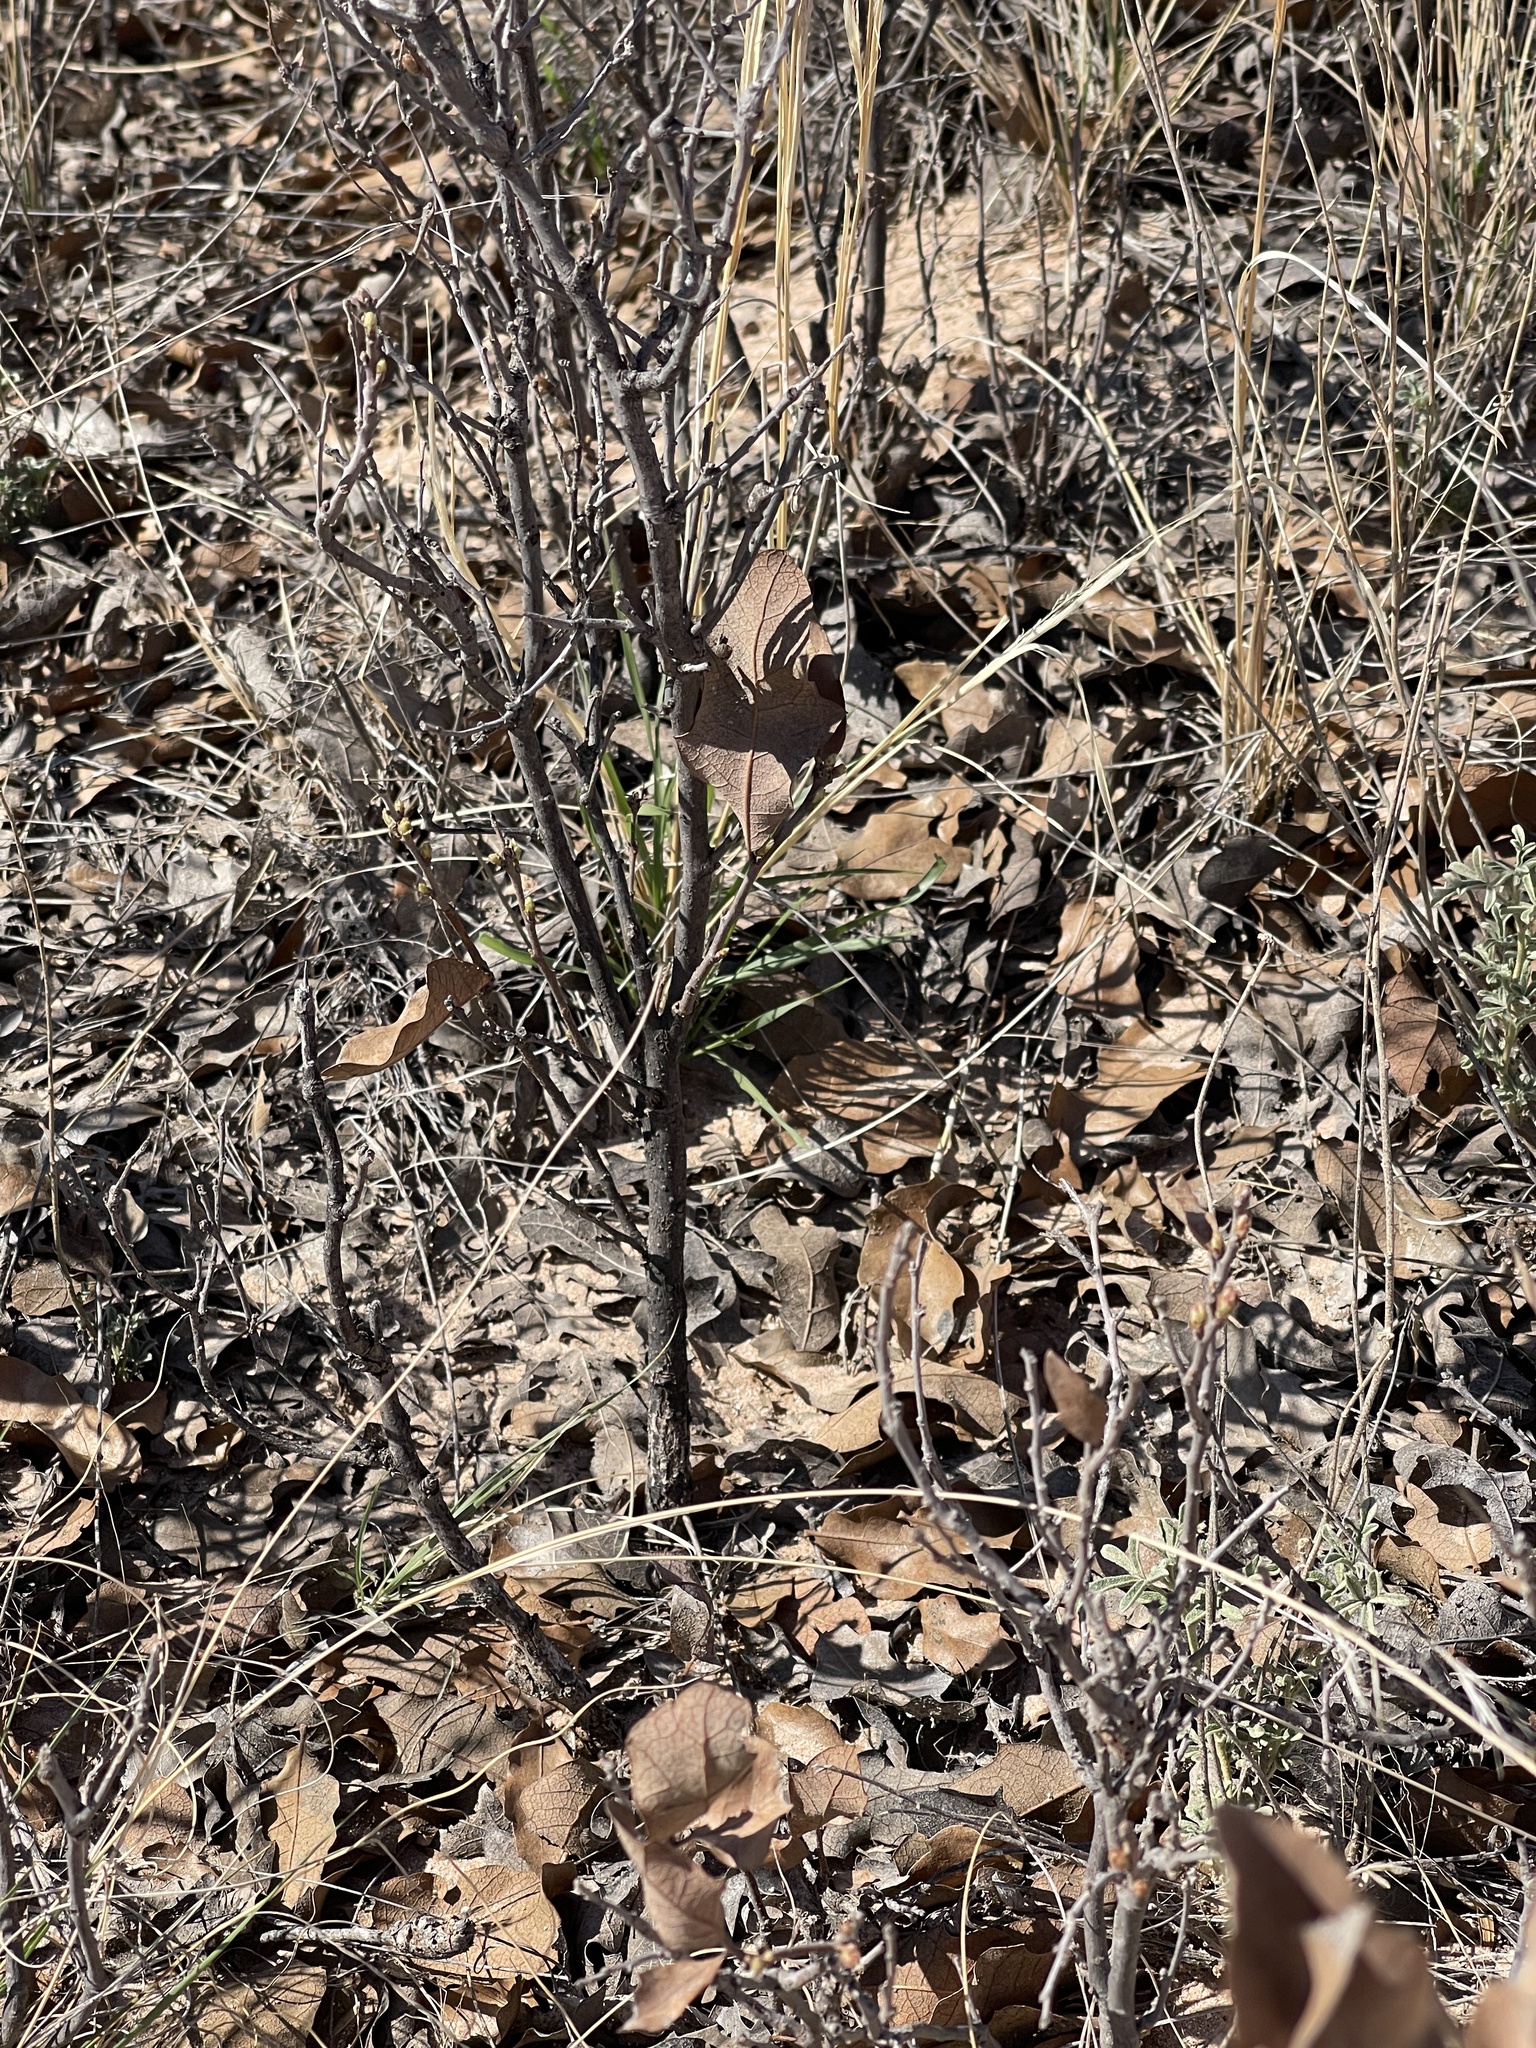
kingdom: Plantae
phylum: Tracheophyta
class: Magnoliopsida
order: Fagales
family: Fagaceae
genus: Quercus
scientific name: Quercus havardii
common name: Shinnery oak
